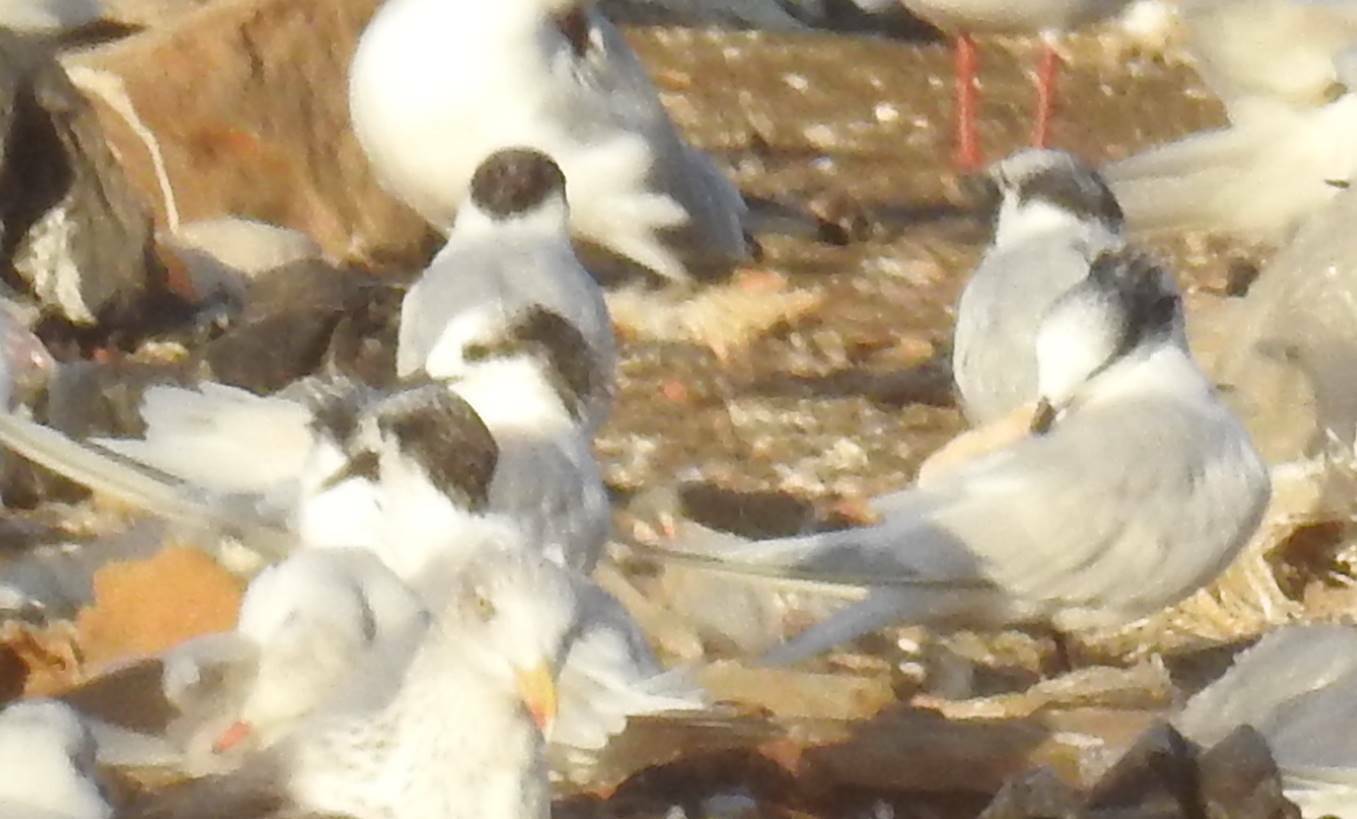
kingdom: Animalia
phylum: Chordata
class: Aves
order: Charadriiformes
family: Laridae
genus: Thalasseus
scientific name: Thalasseus sandvicensis
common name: Sandwich tern
